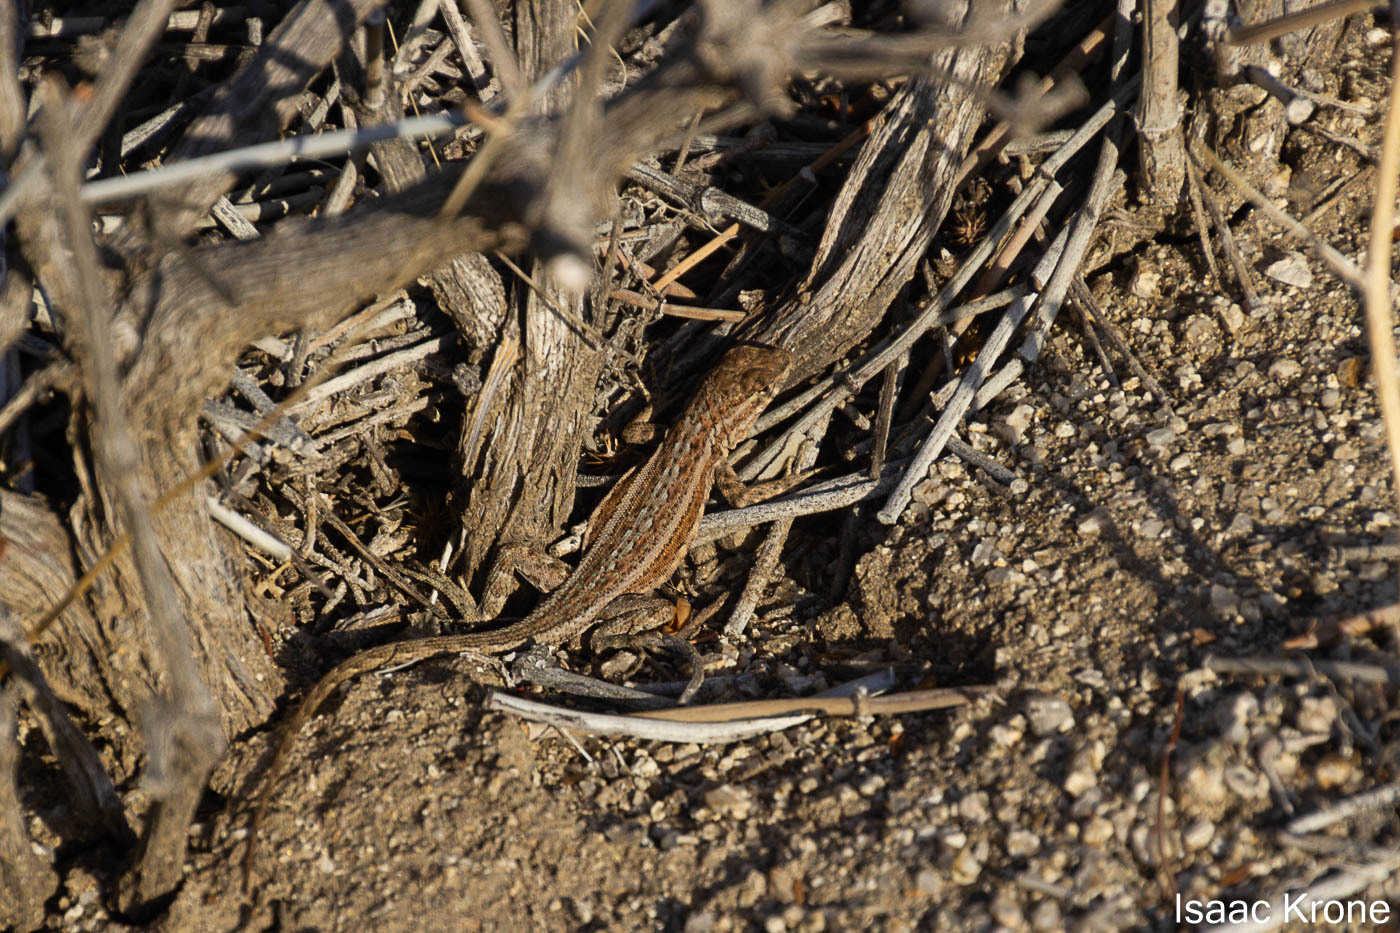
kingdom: Animalia
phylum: Chordata
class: Squamata
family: Phrynosomatidae
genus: Uta
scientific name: Uta stansburiana
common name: Side-blotched lizard
